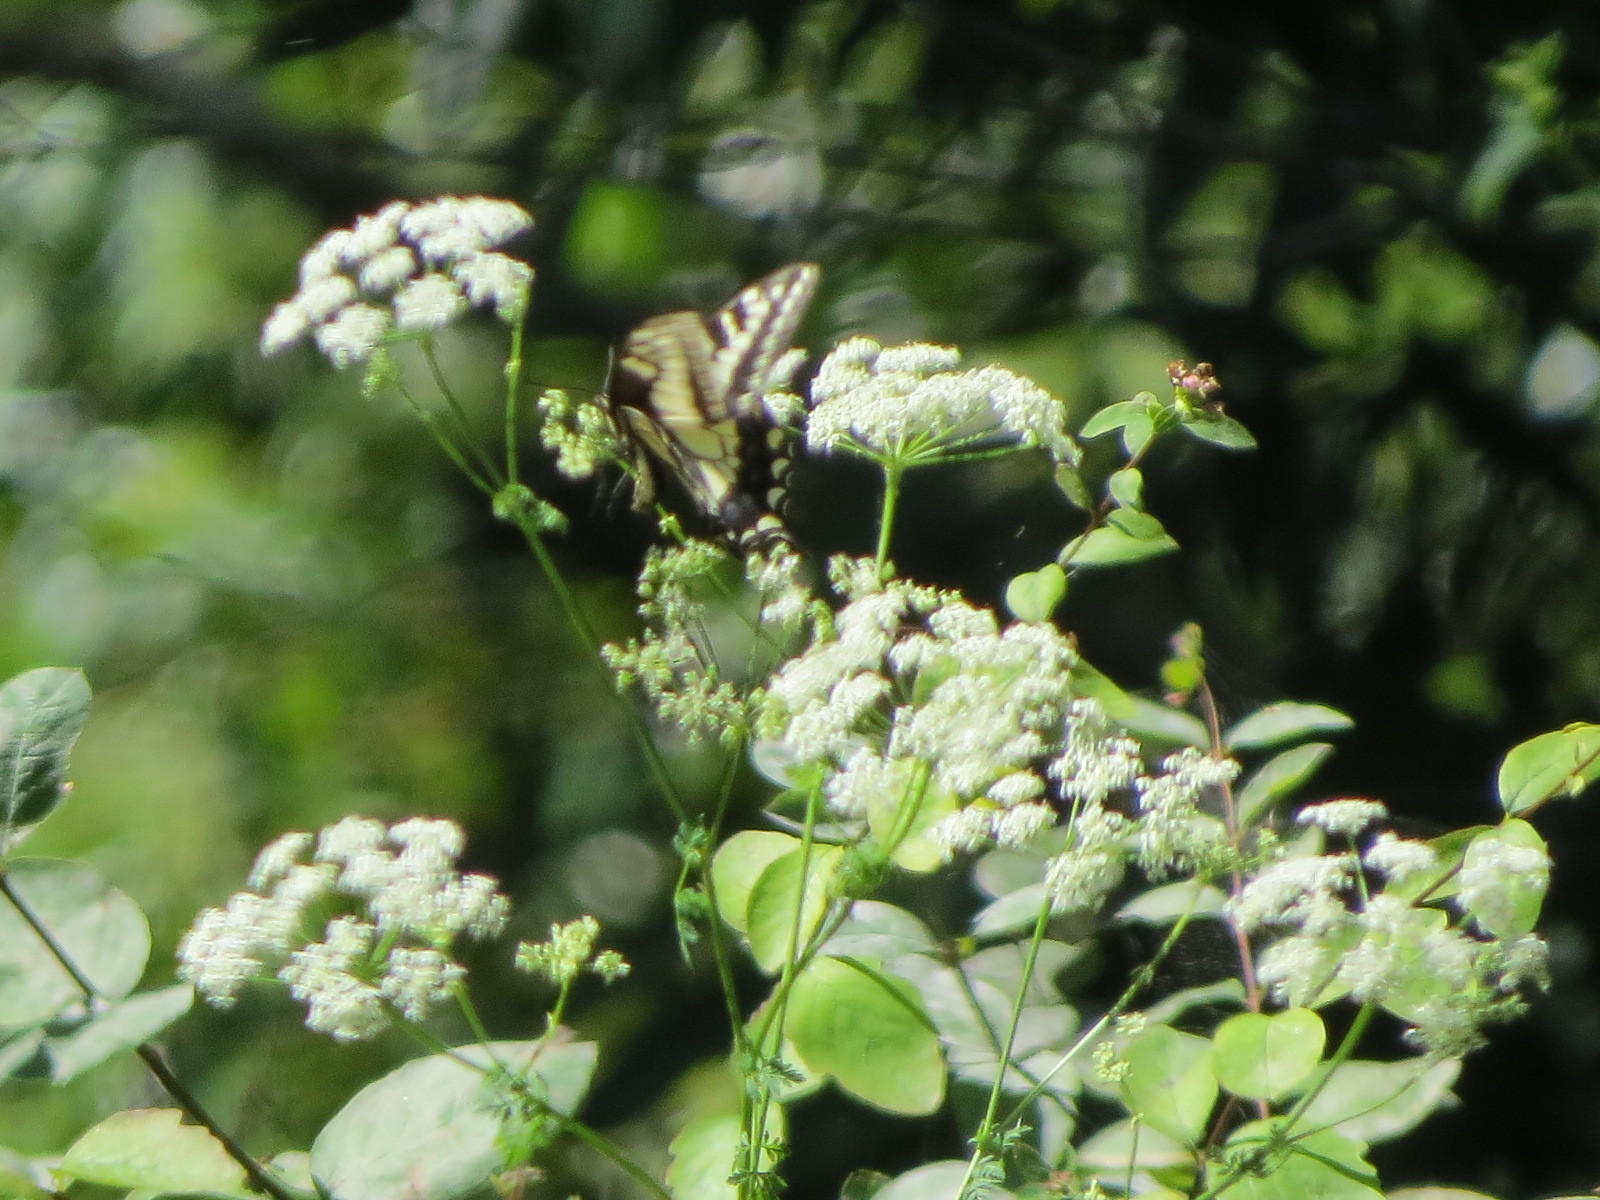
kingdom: Animalia
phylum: Arthropoda
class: Insecta
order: Lepidoptera
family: Papilionidae
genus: Papilio
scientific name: Papilio zelicaon
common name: Anise swallowtail
